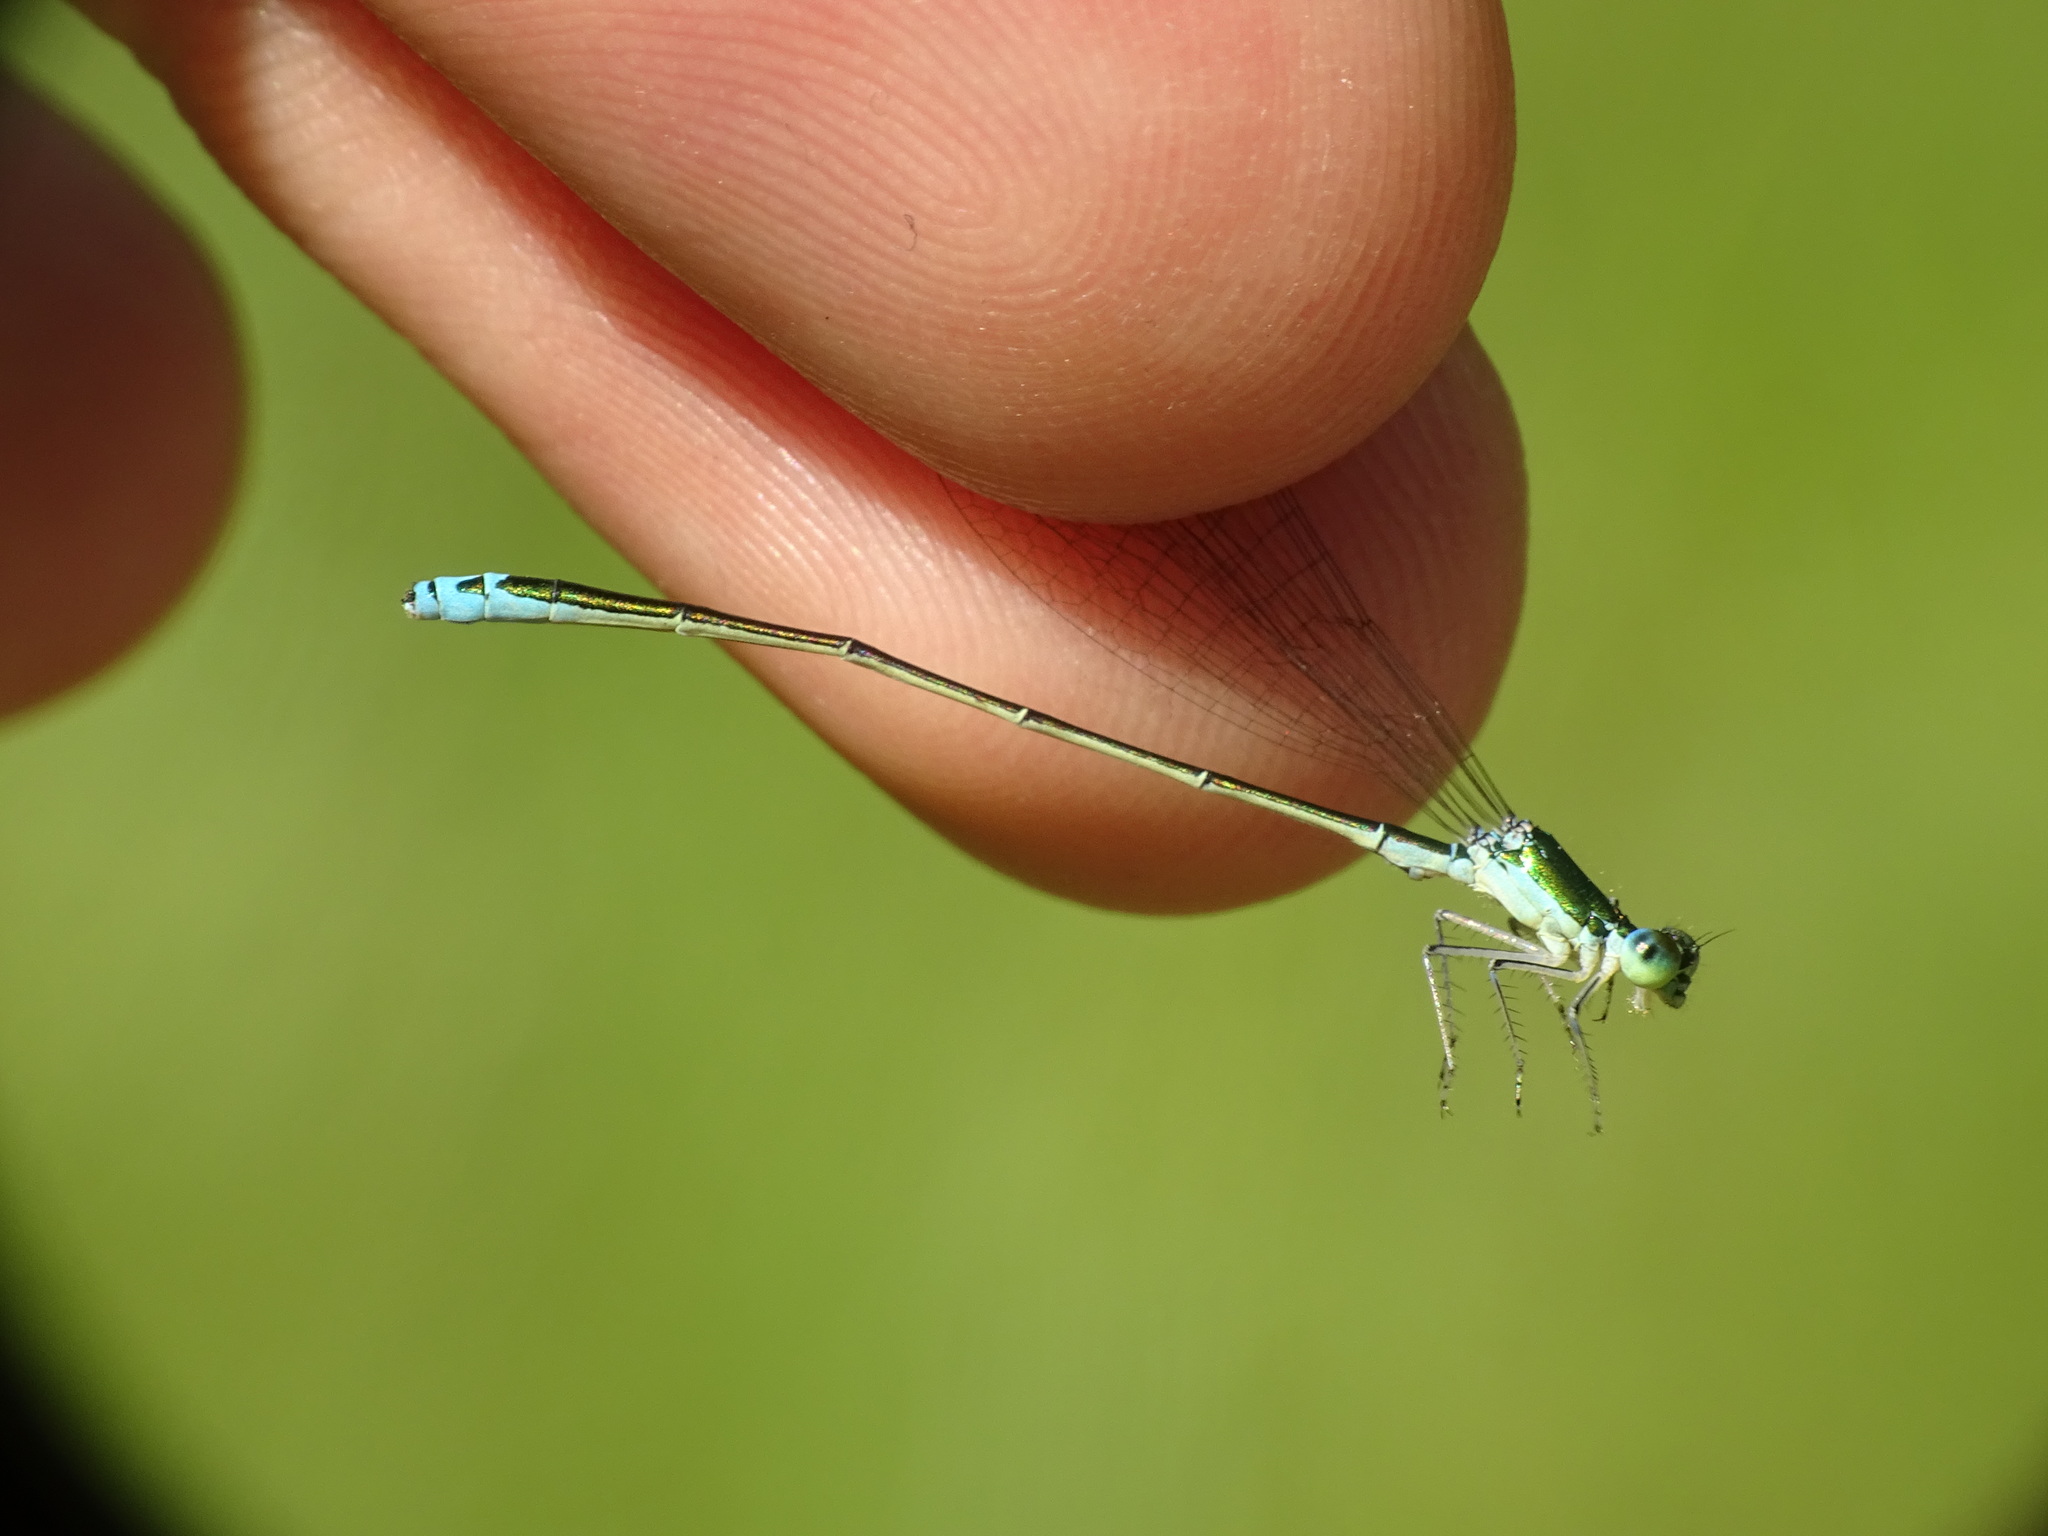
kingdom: Animalia
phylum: Arthropoda
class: Insecta
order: Odonata
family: Coenagrionidae
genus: Nehalennia
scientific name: Nehalennia irene
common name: Sedge sprite
